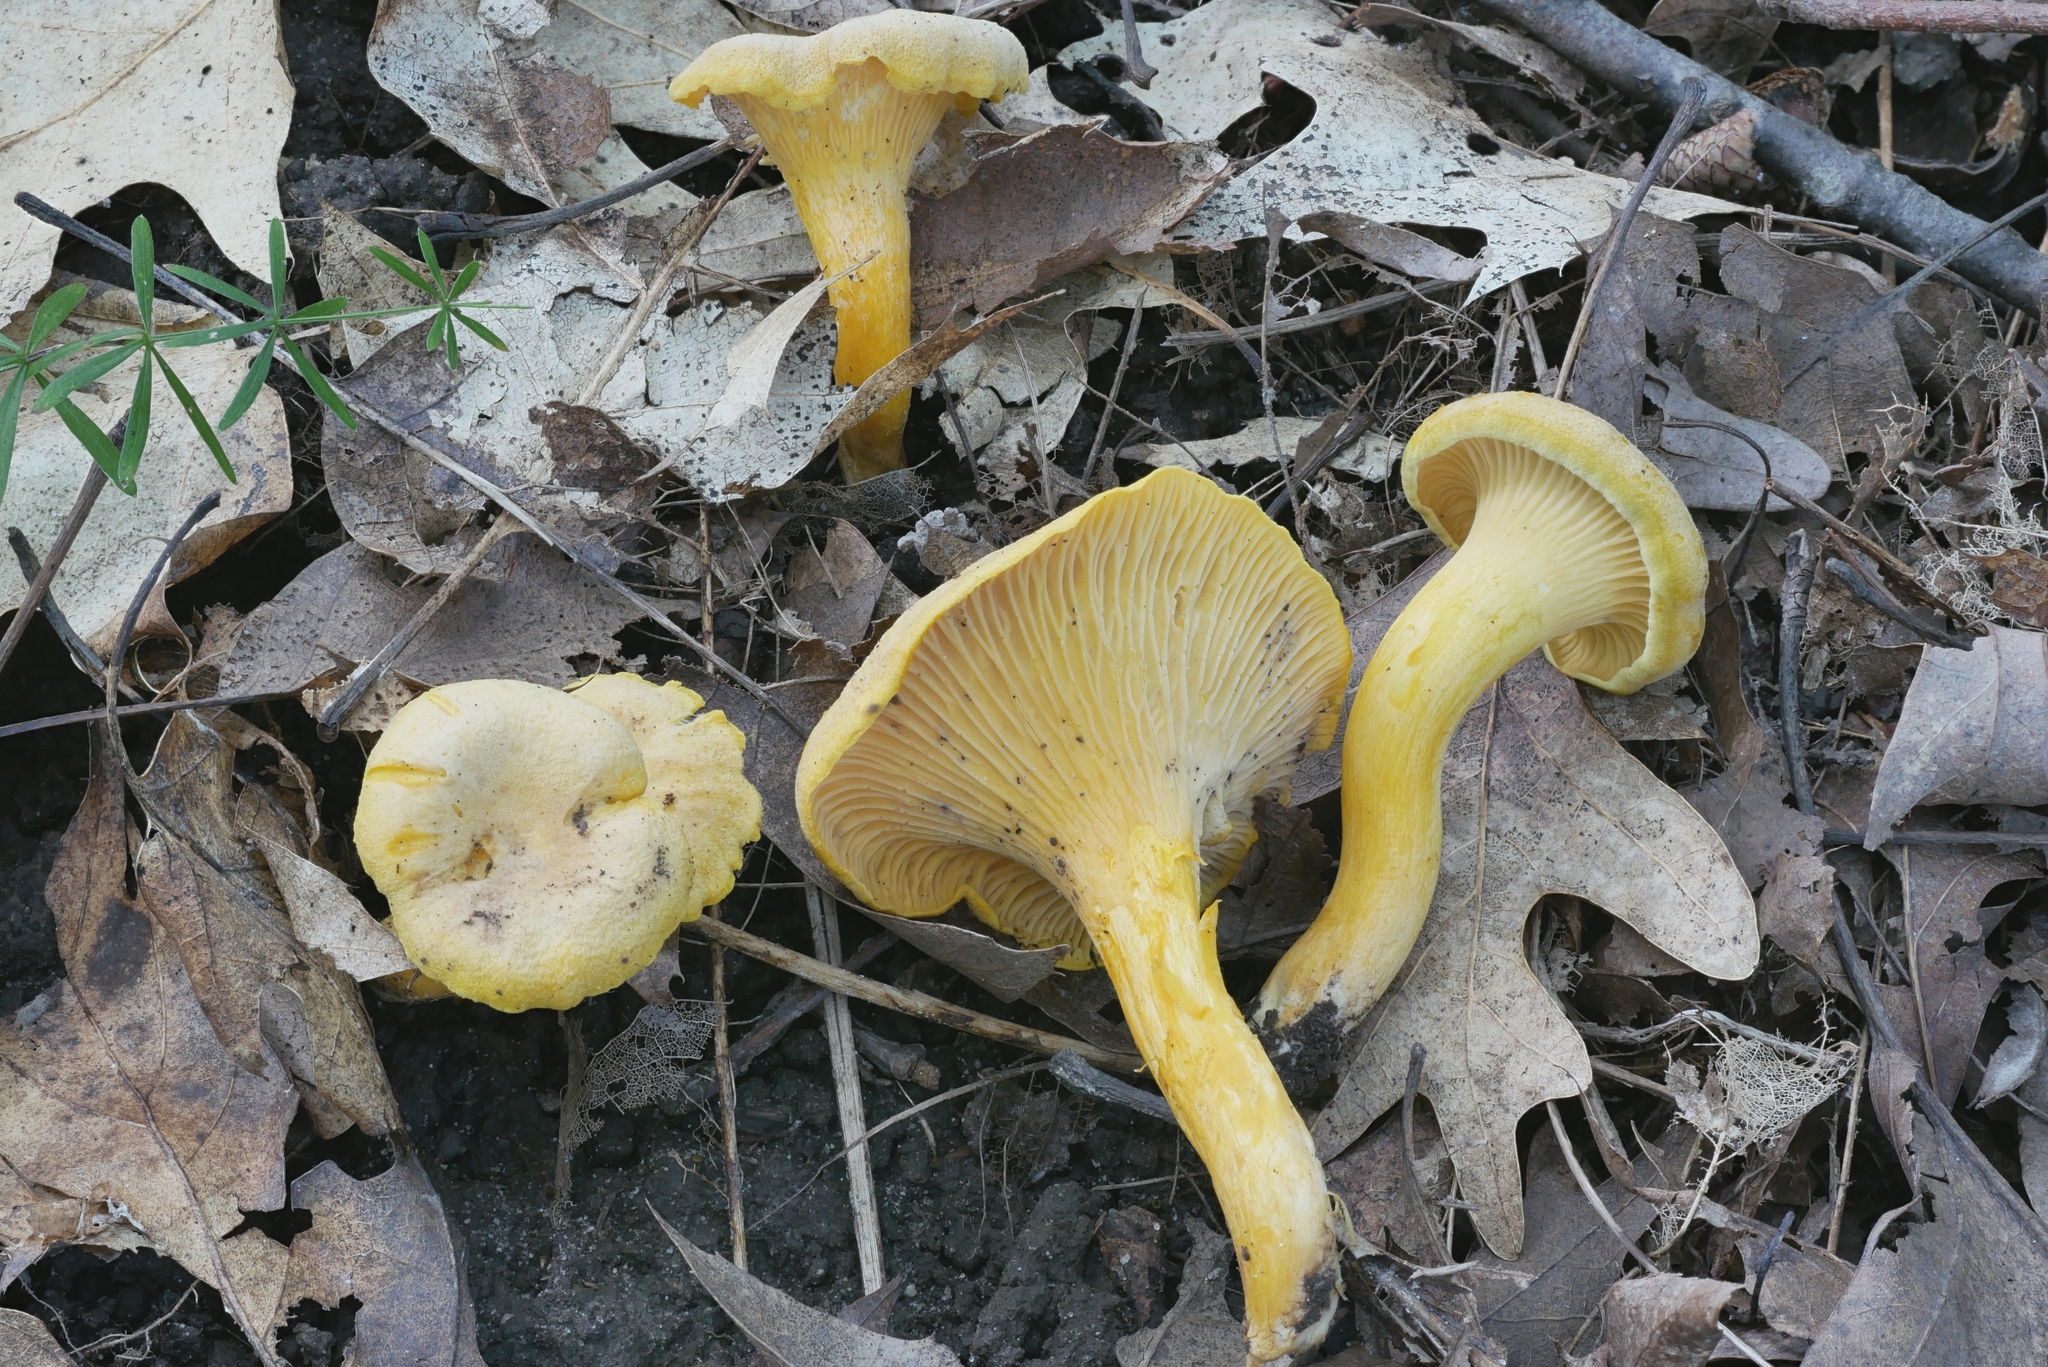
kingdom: Fungi
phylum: Basidiomycota
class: Agaricomycetes
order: Cantharellales
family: Hydnaceae
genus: Cantharellus
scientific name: Cantharellus chicagoensis
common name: Chicago chanterelle
